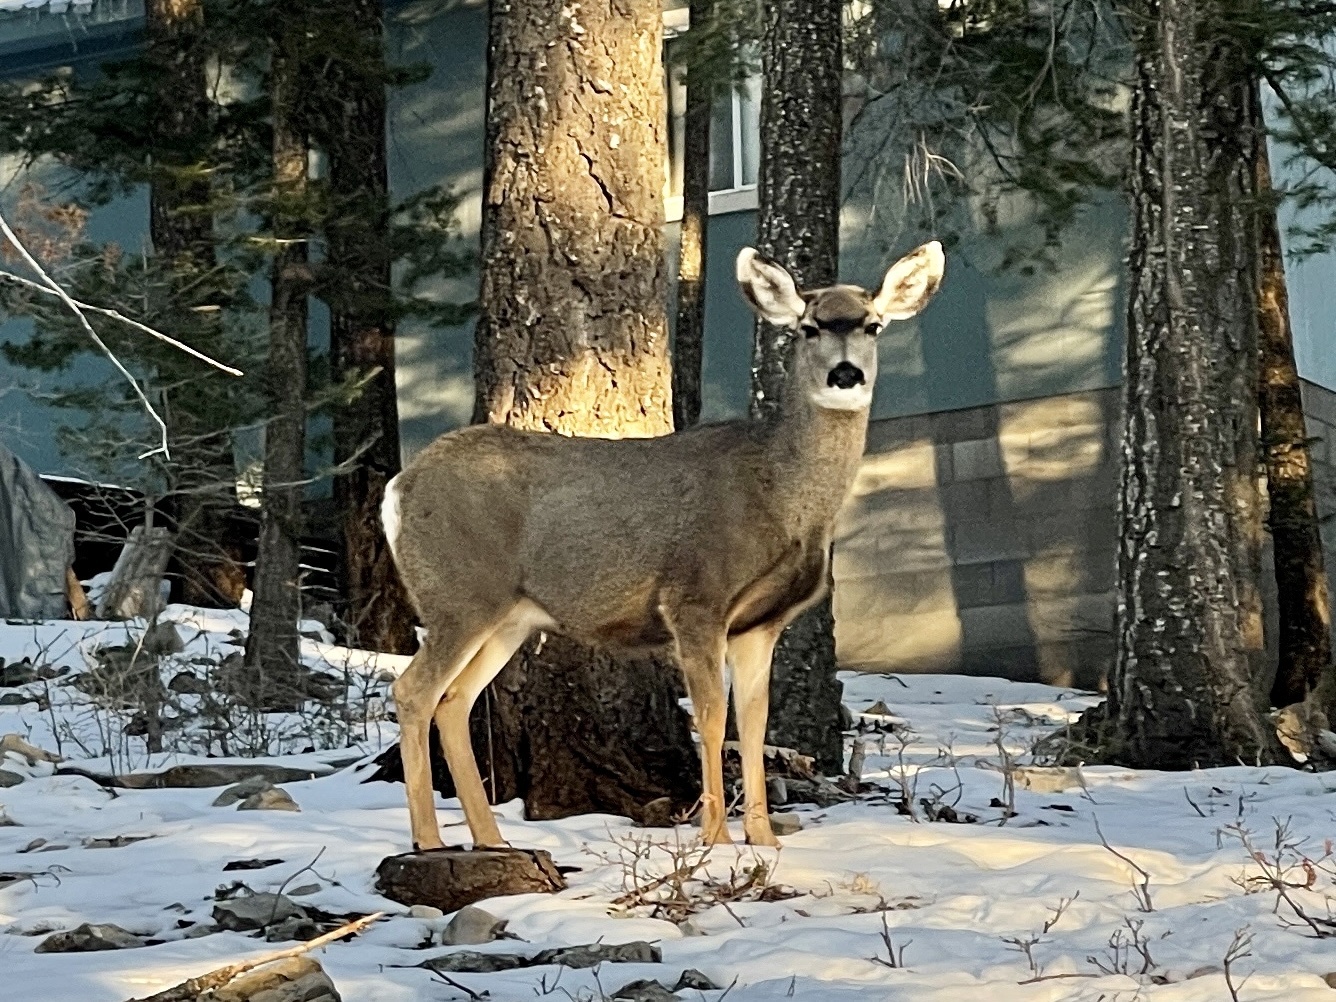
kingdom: Animalia
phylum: Chordata
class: Mammalia
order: Artiodactyla
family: Cervidae
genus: Odocoileus
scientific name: Odocoileus hemionus
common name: Mule deer
